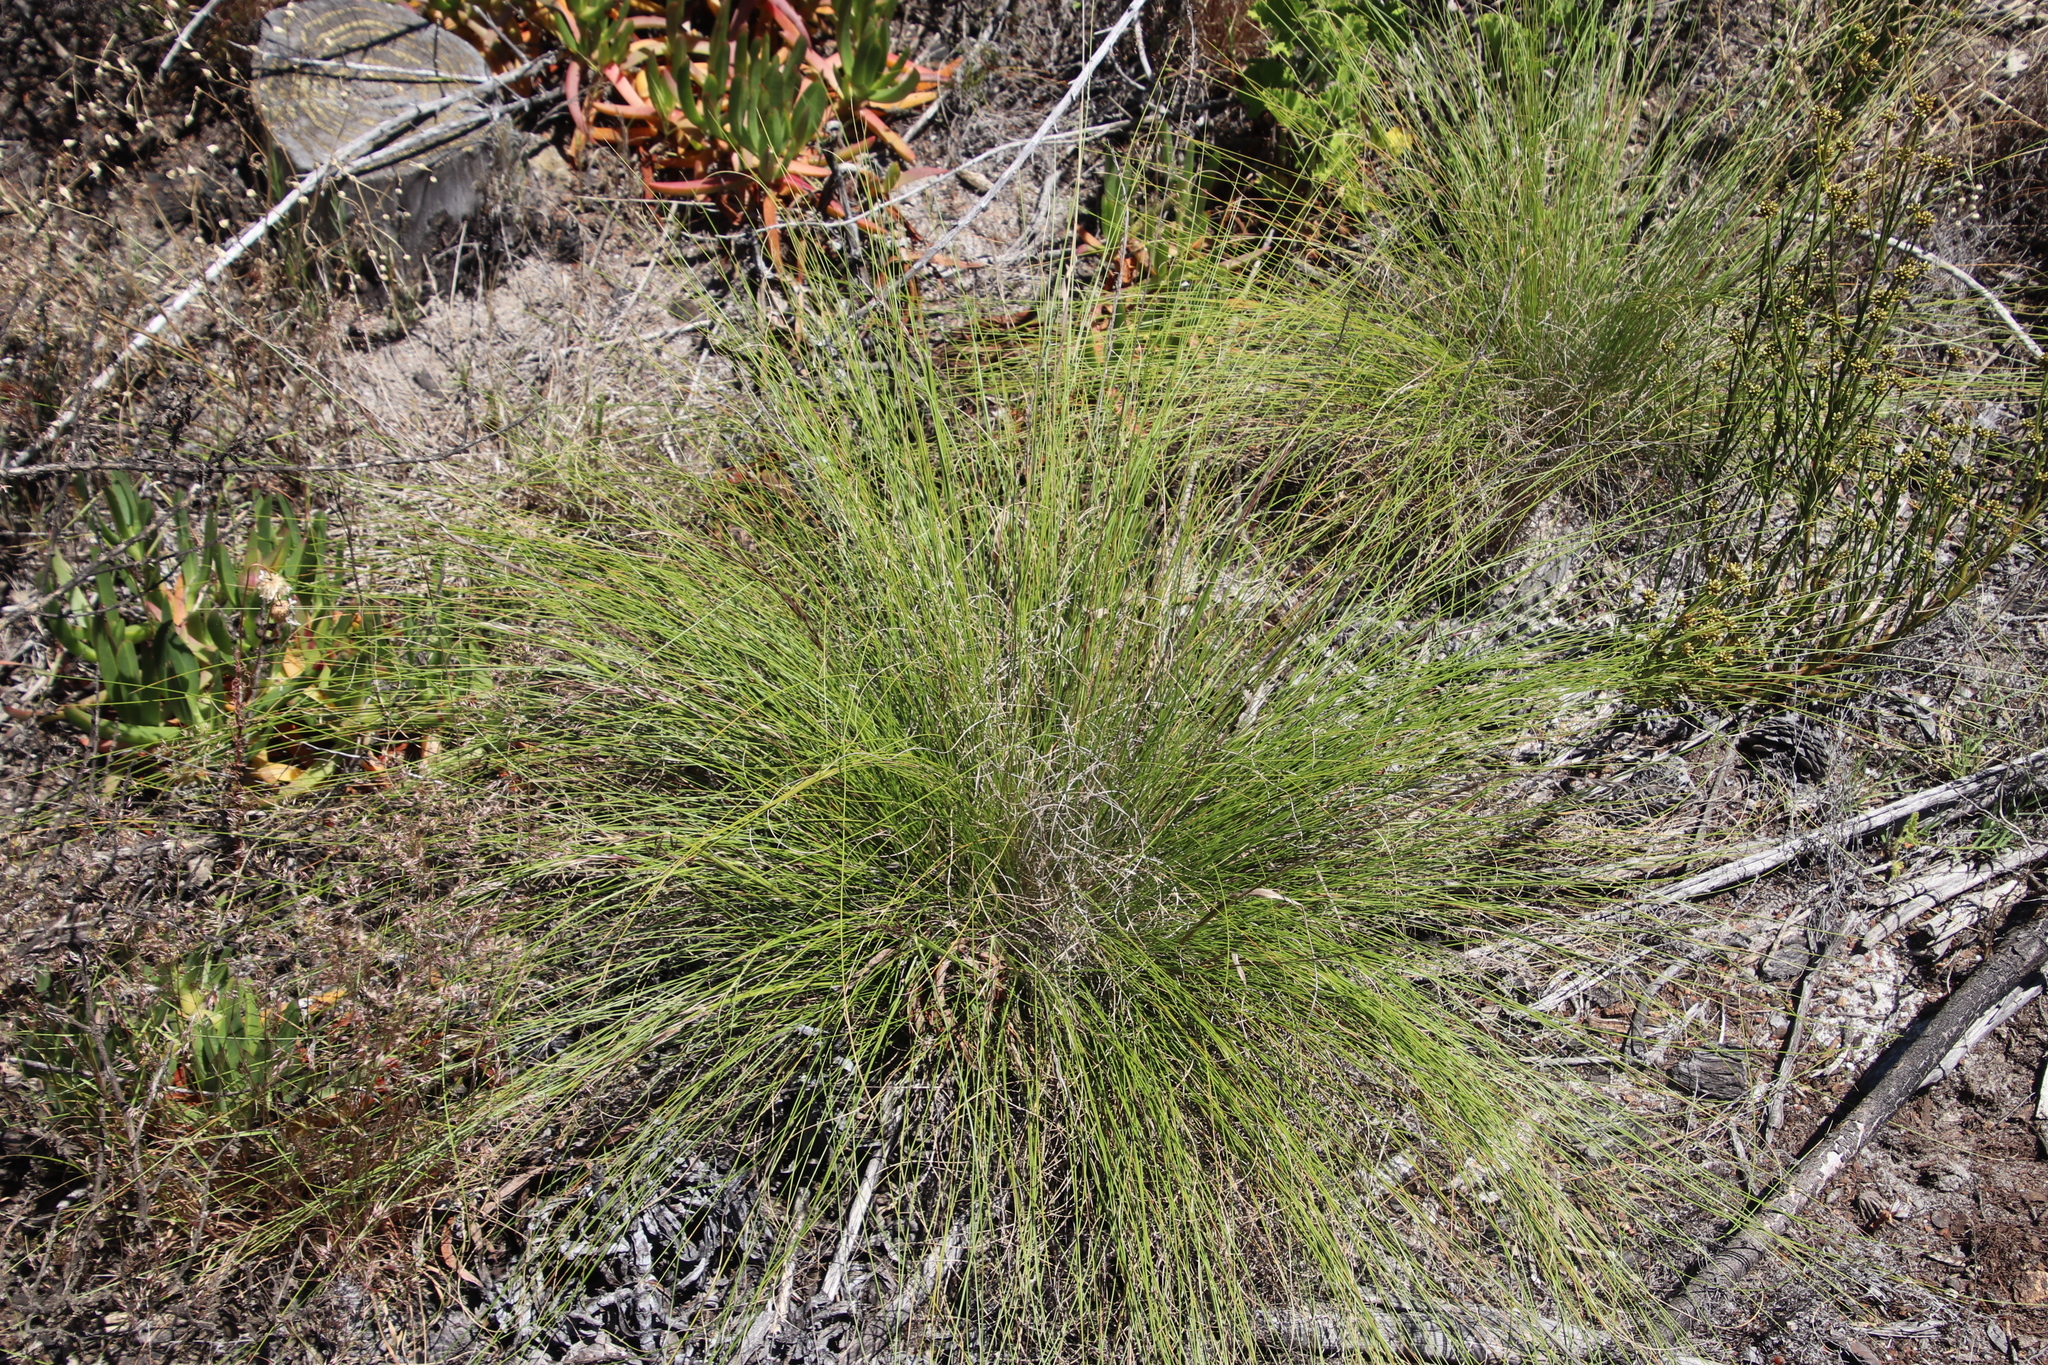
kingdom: Plantae
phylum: Tracheophyta
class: Liliopsida
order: Poales
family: Poaceae
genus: Tenaxia
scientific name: Tenaxia stricta
